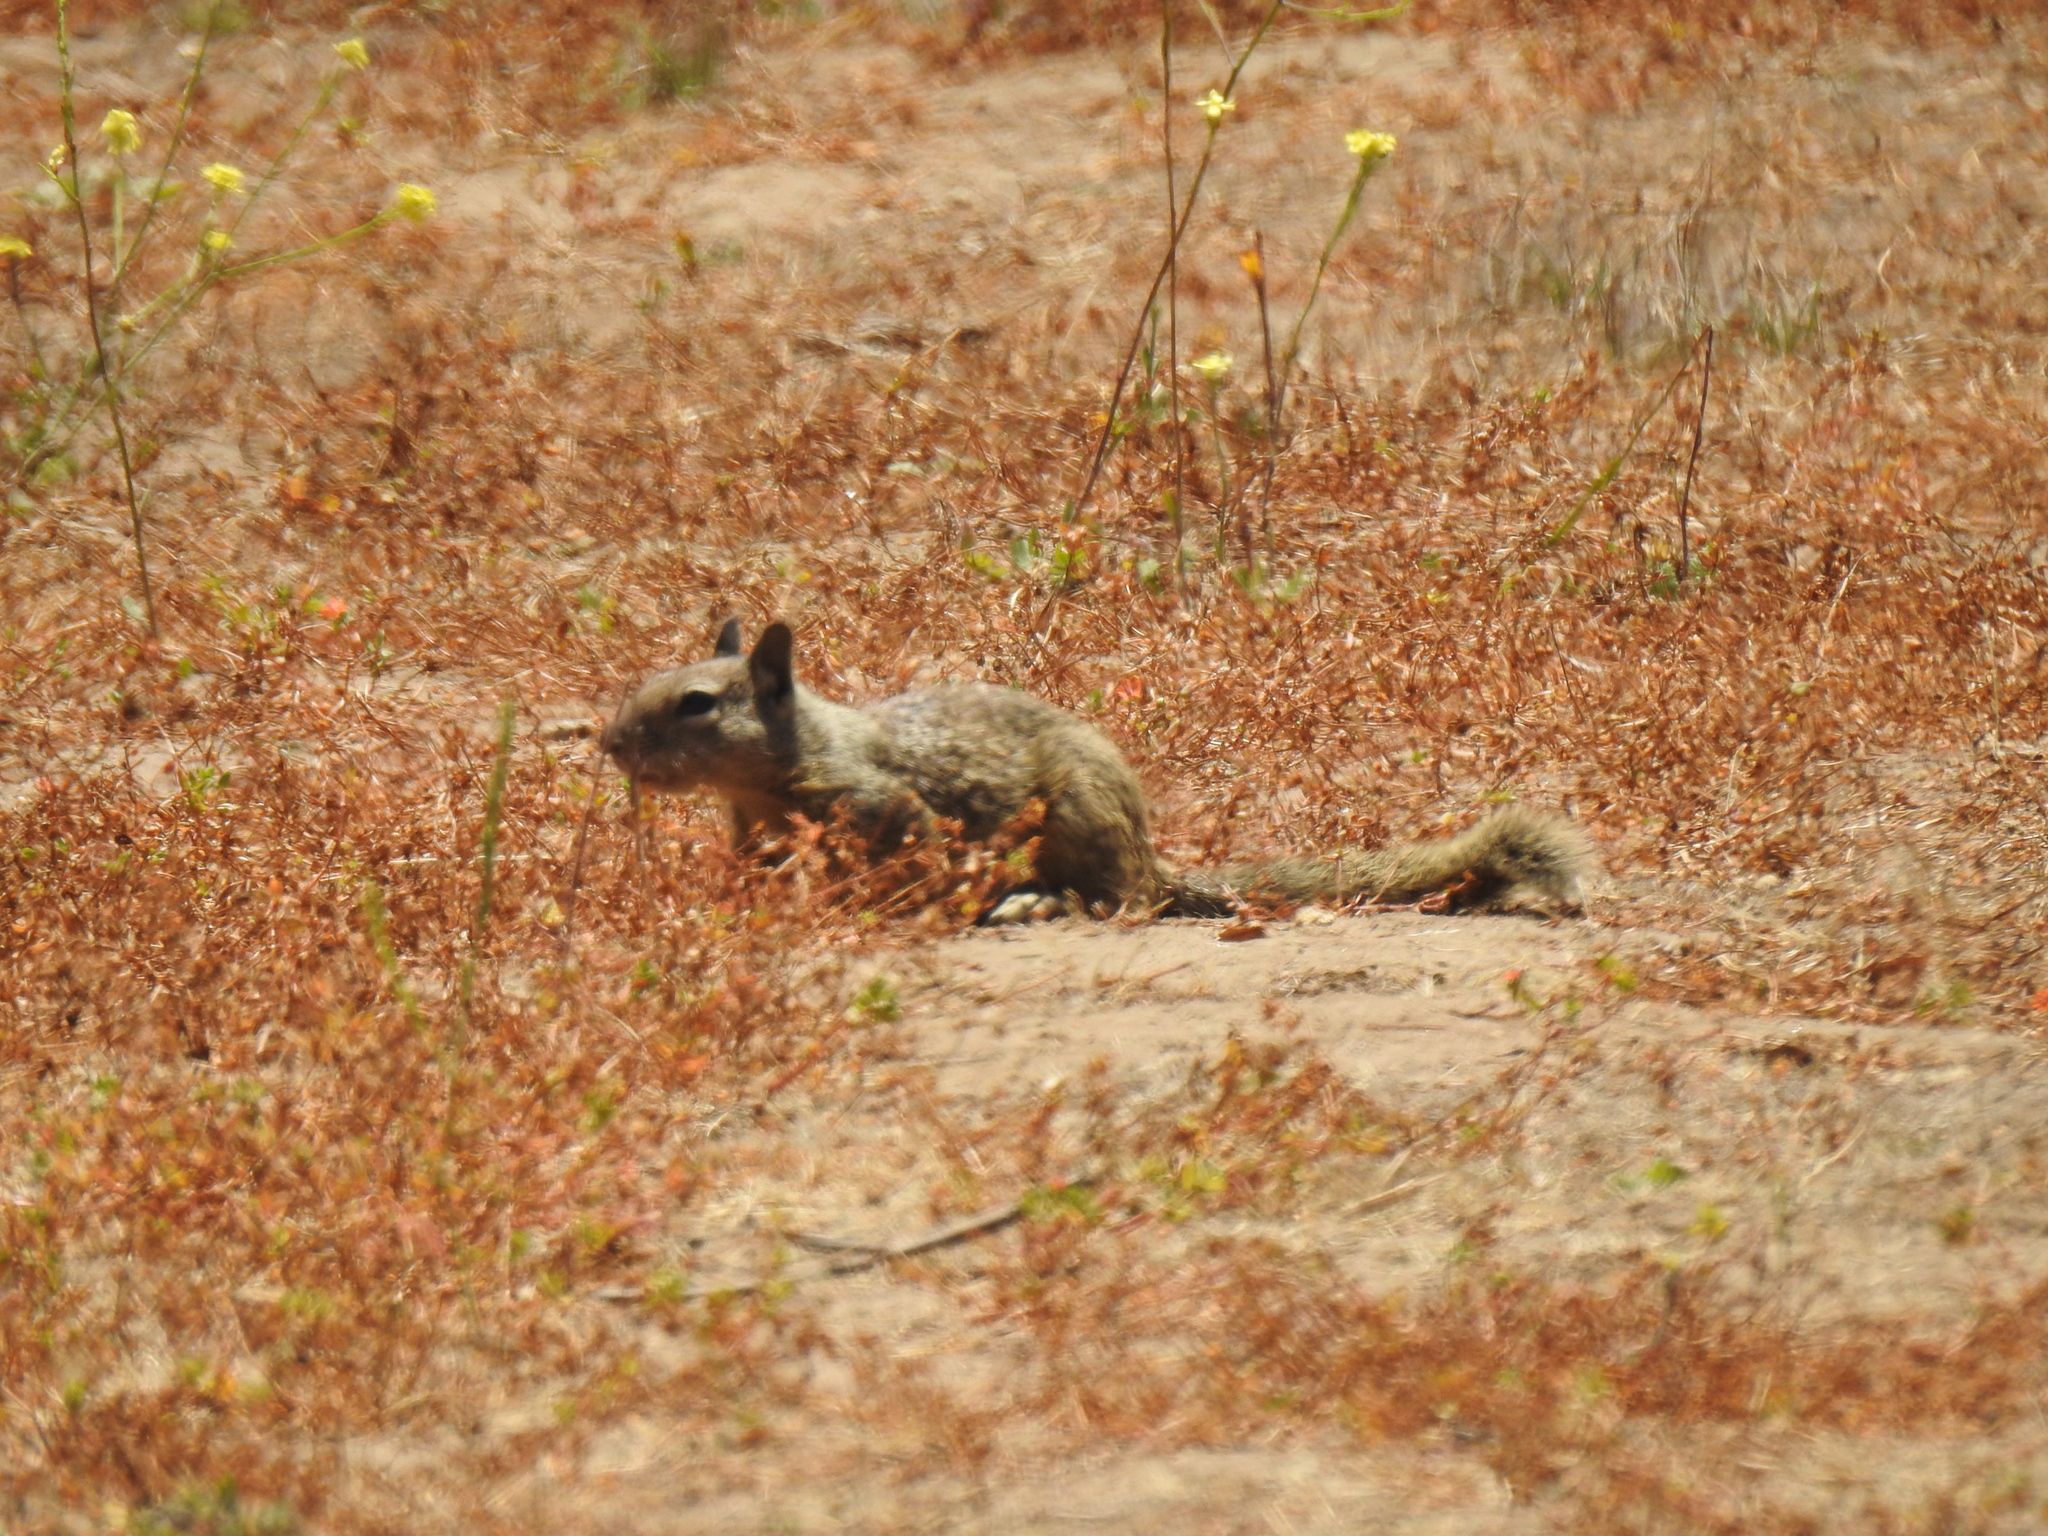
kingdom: Animalia
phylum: Chordata
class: Mammalia
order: Rodentia
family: Sciuridae
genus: Otospermophilus
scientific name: Otospermophilus beecheyi
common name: California ground squirrel
